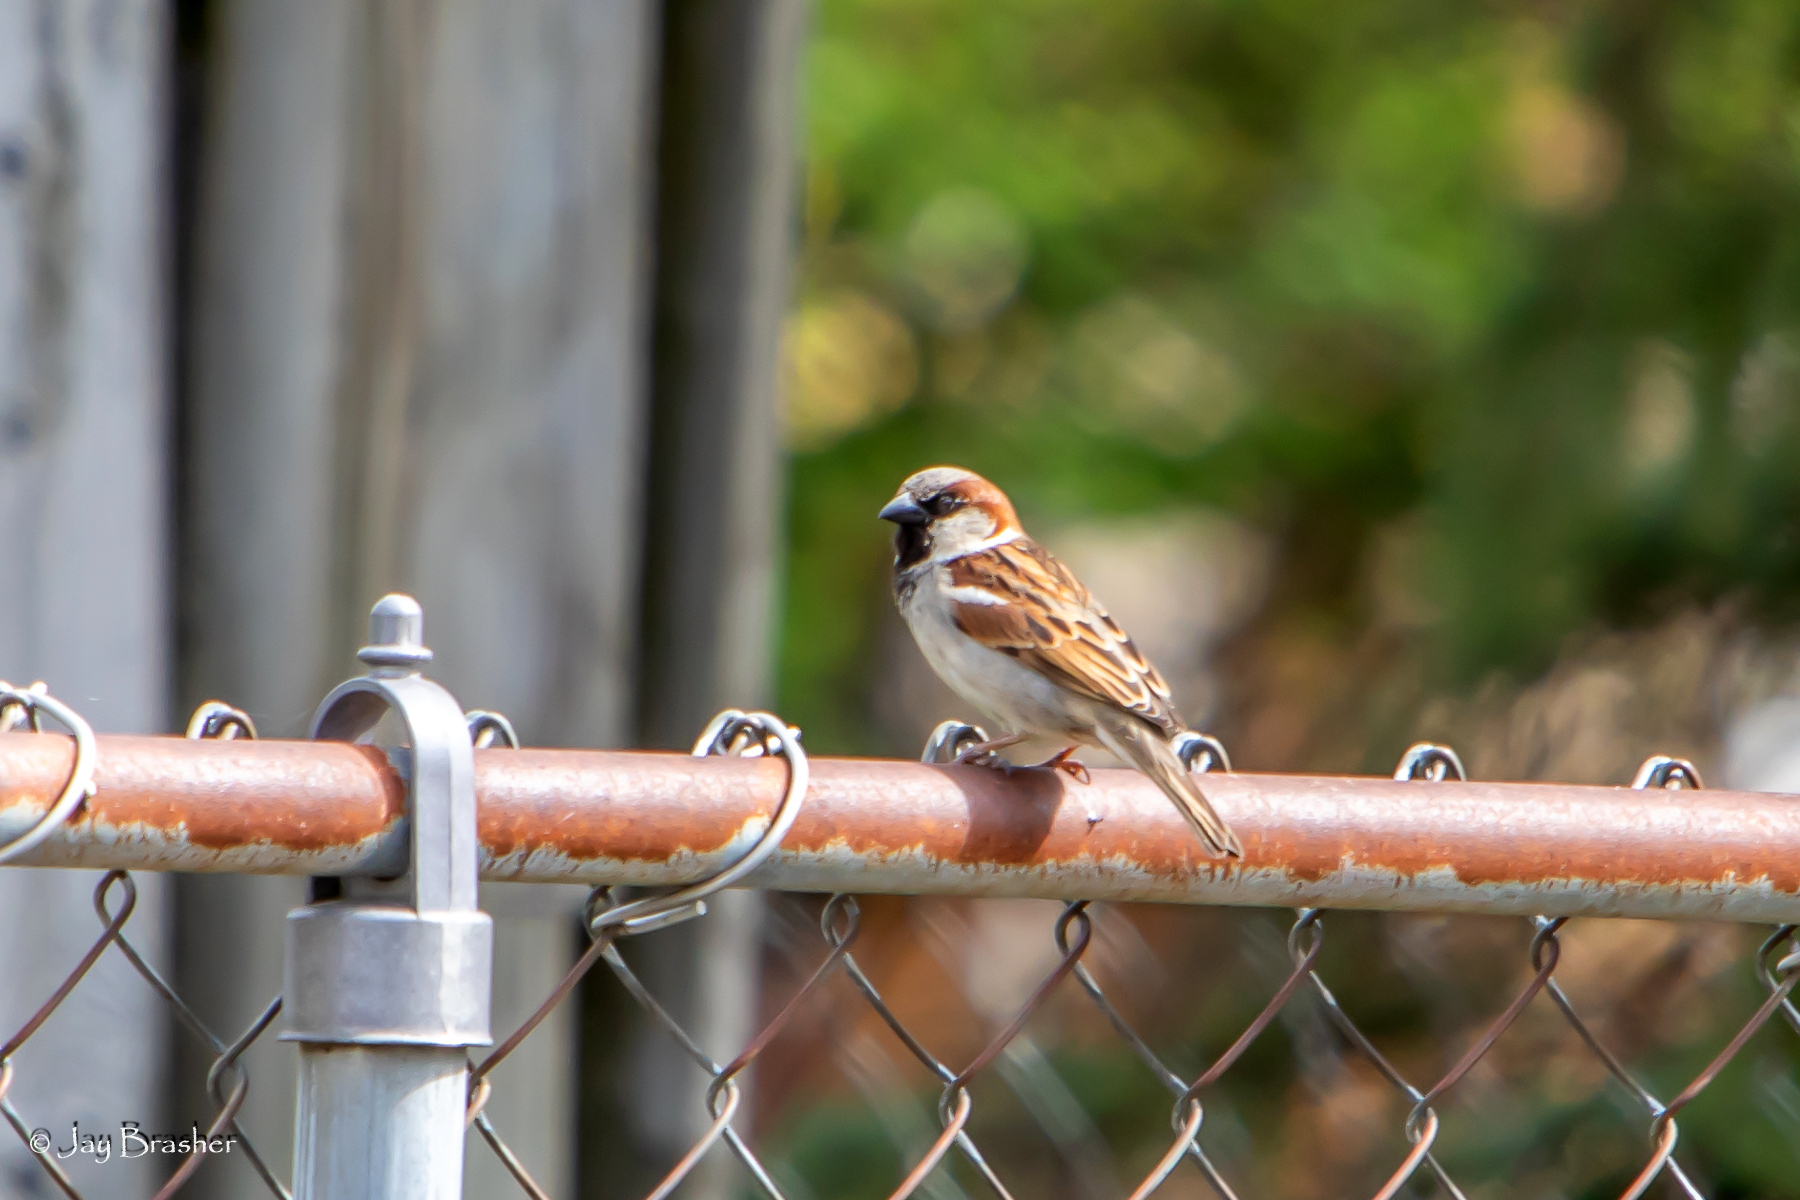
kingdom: Animalia
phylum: Chordata
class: Aves
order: Passeriformes
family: Passeridae
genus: Passer
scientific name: Passer domesticus
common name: House sparrow
